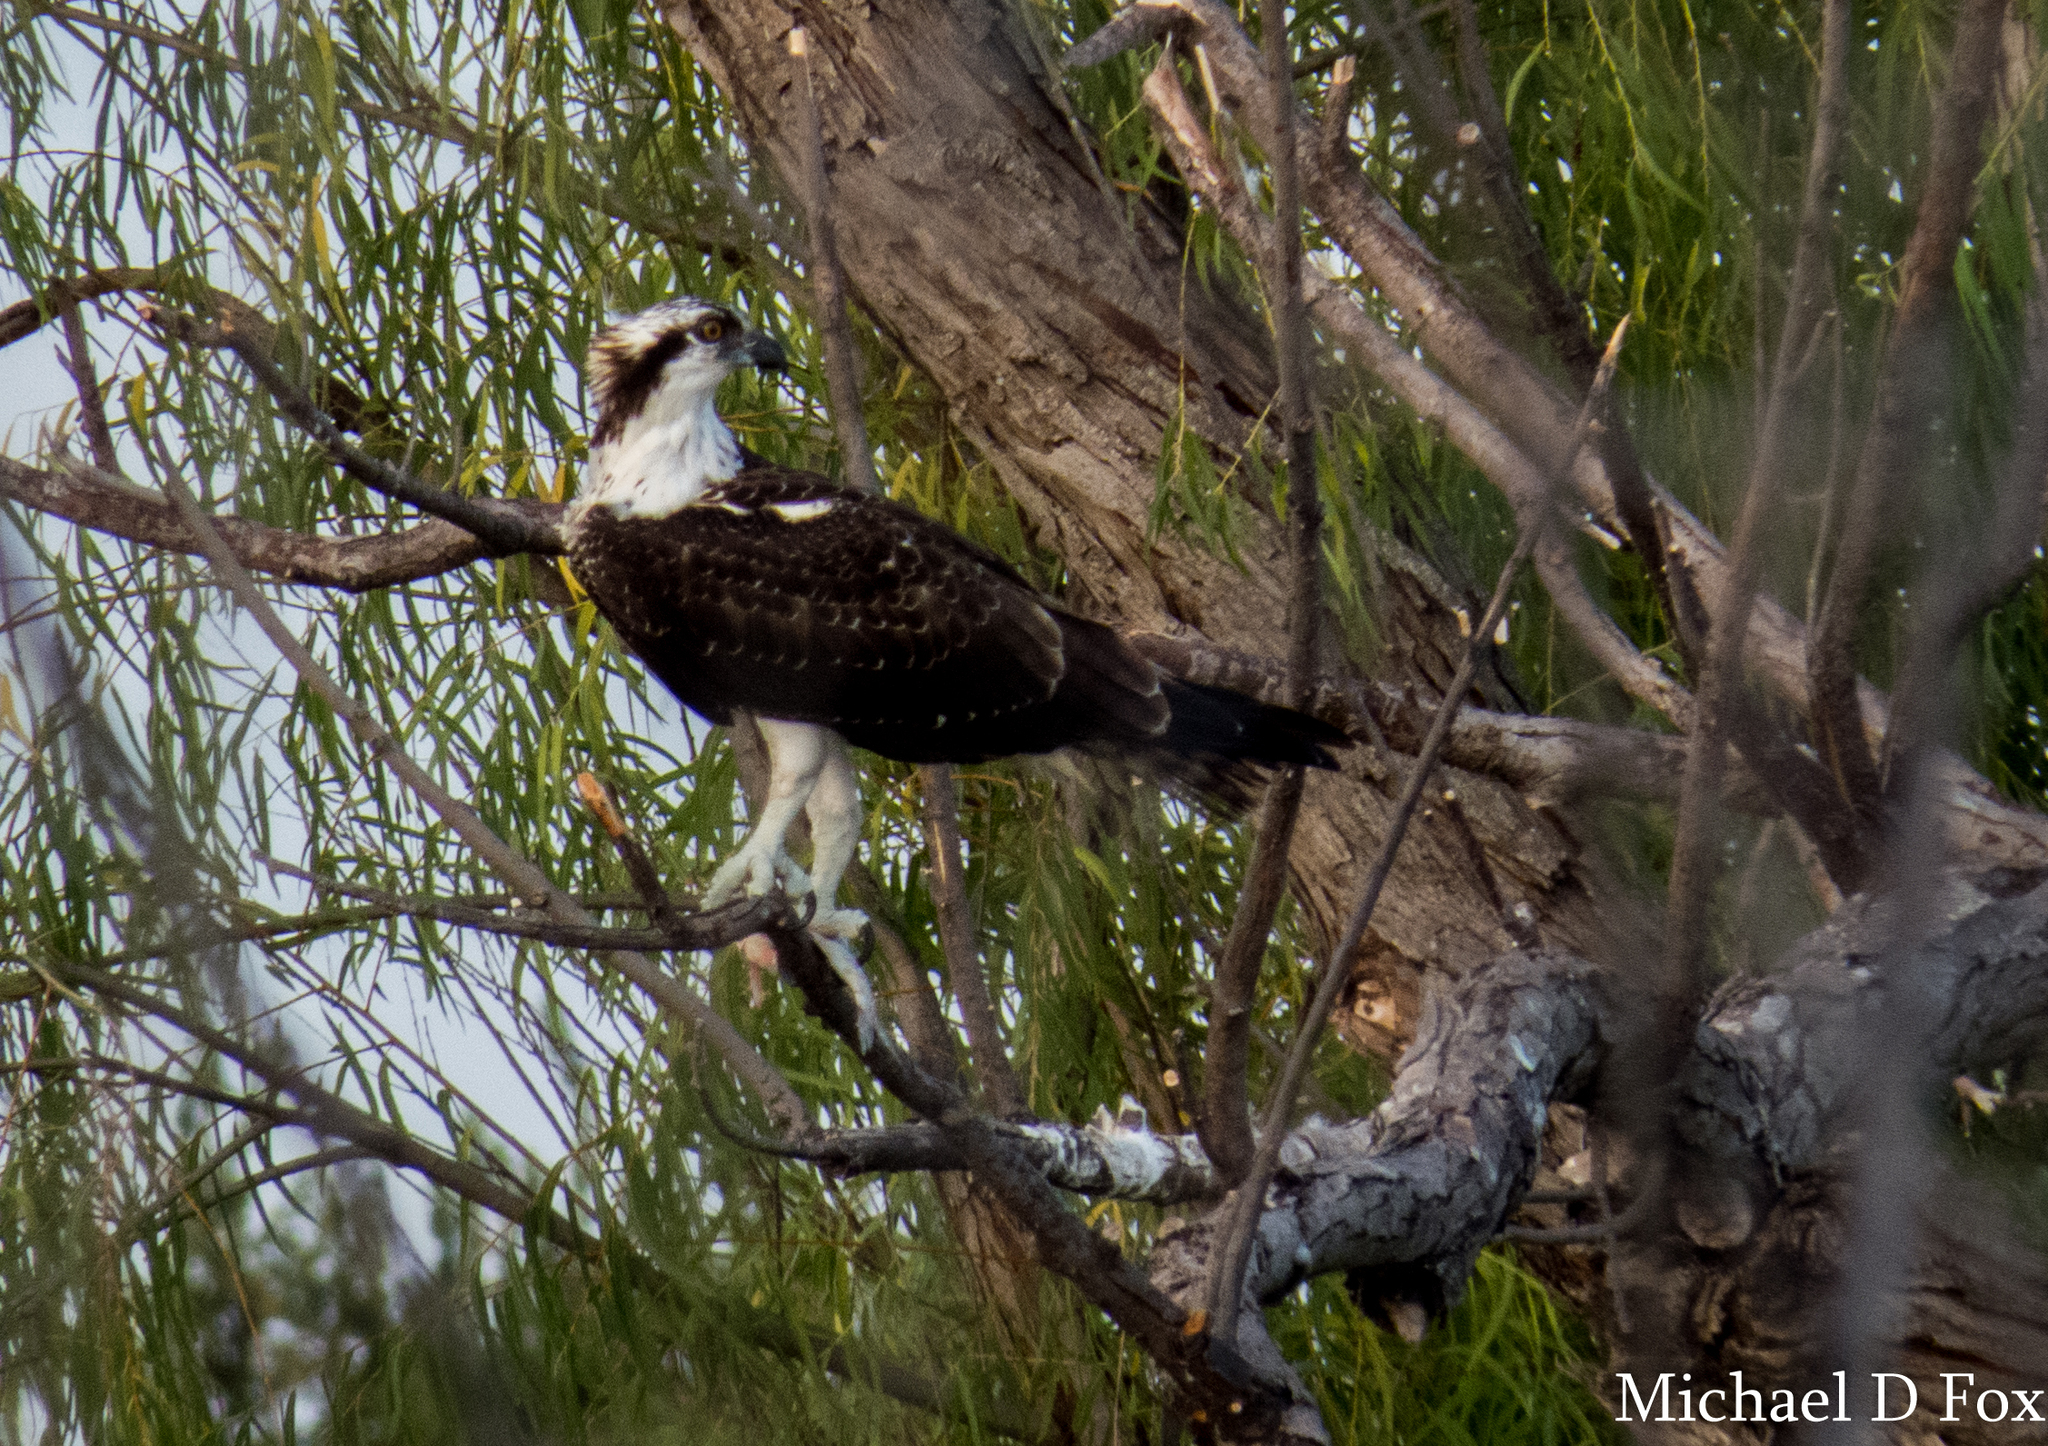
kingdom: Animalia
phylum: Chordata
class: Aves
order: Accipitriformes
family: Pandionidae
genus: Pandion
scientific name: Pandion haliaetus
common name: Osprey
